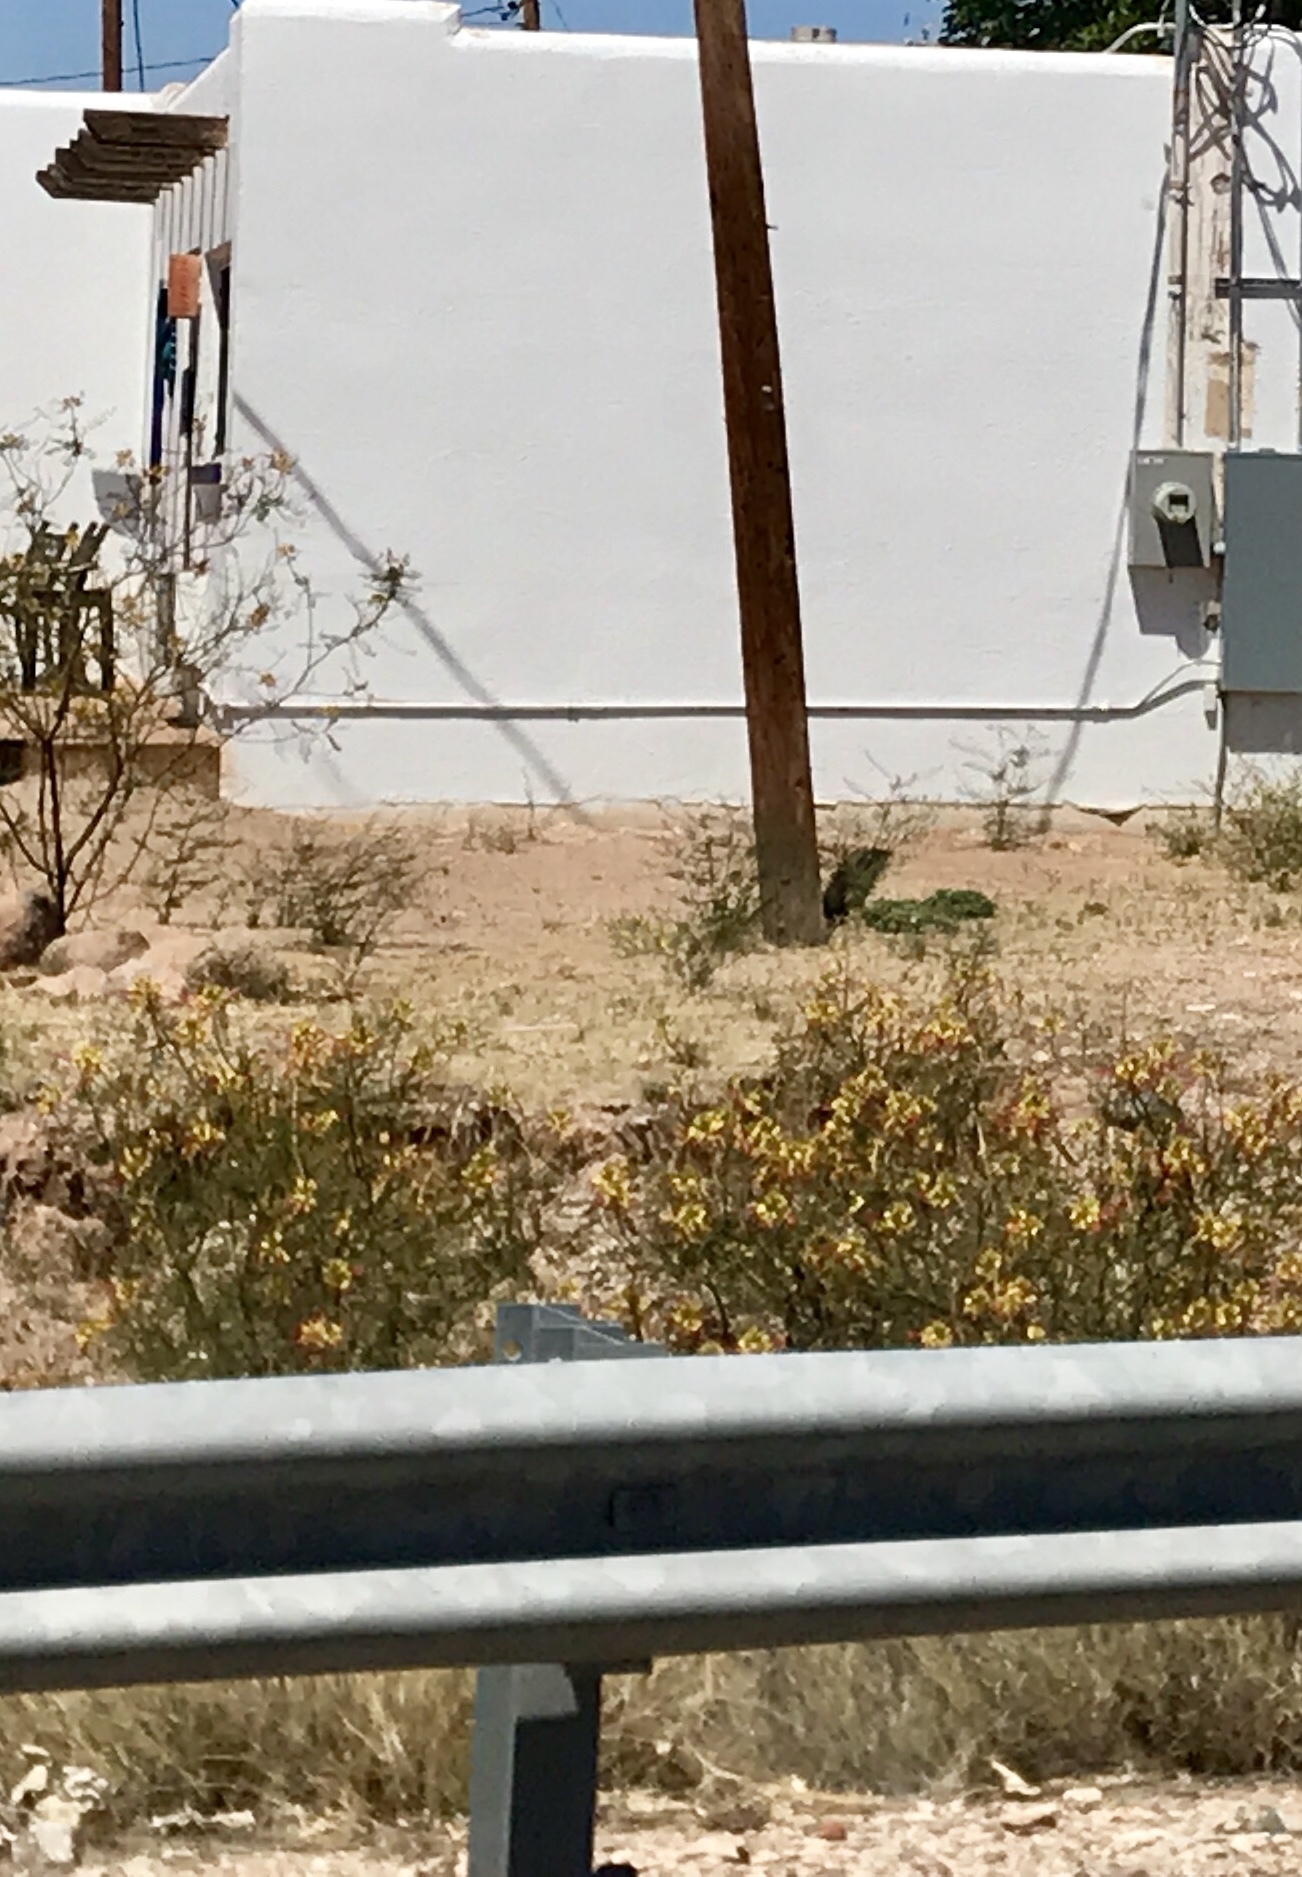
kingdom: Plantae
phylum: Tracheophyta
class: Magnoliopsida
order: Fabales
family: Fabaceae
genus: Erythrostemon
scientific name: Erythrostemon gilliesii
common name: Bird-of-paradise shrub
